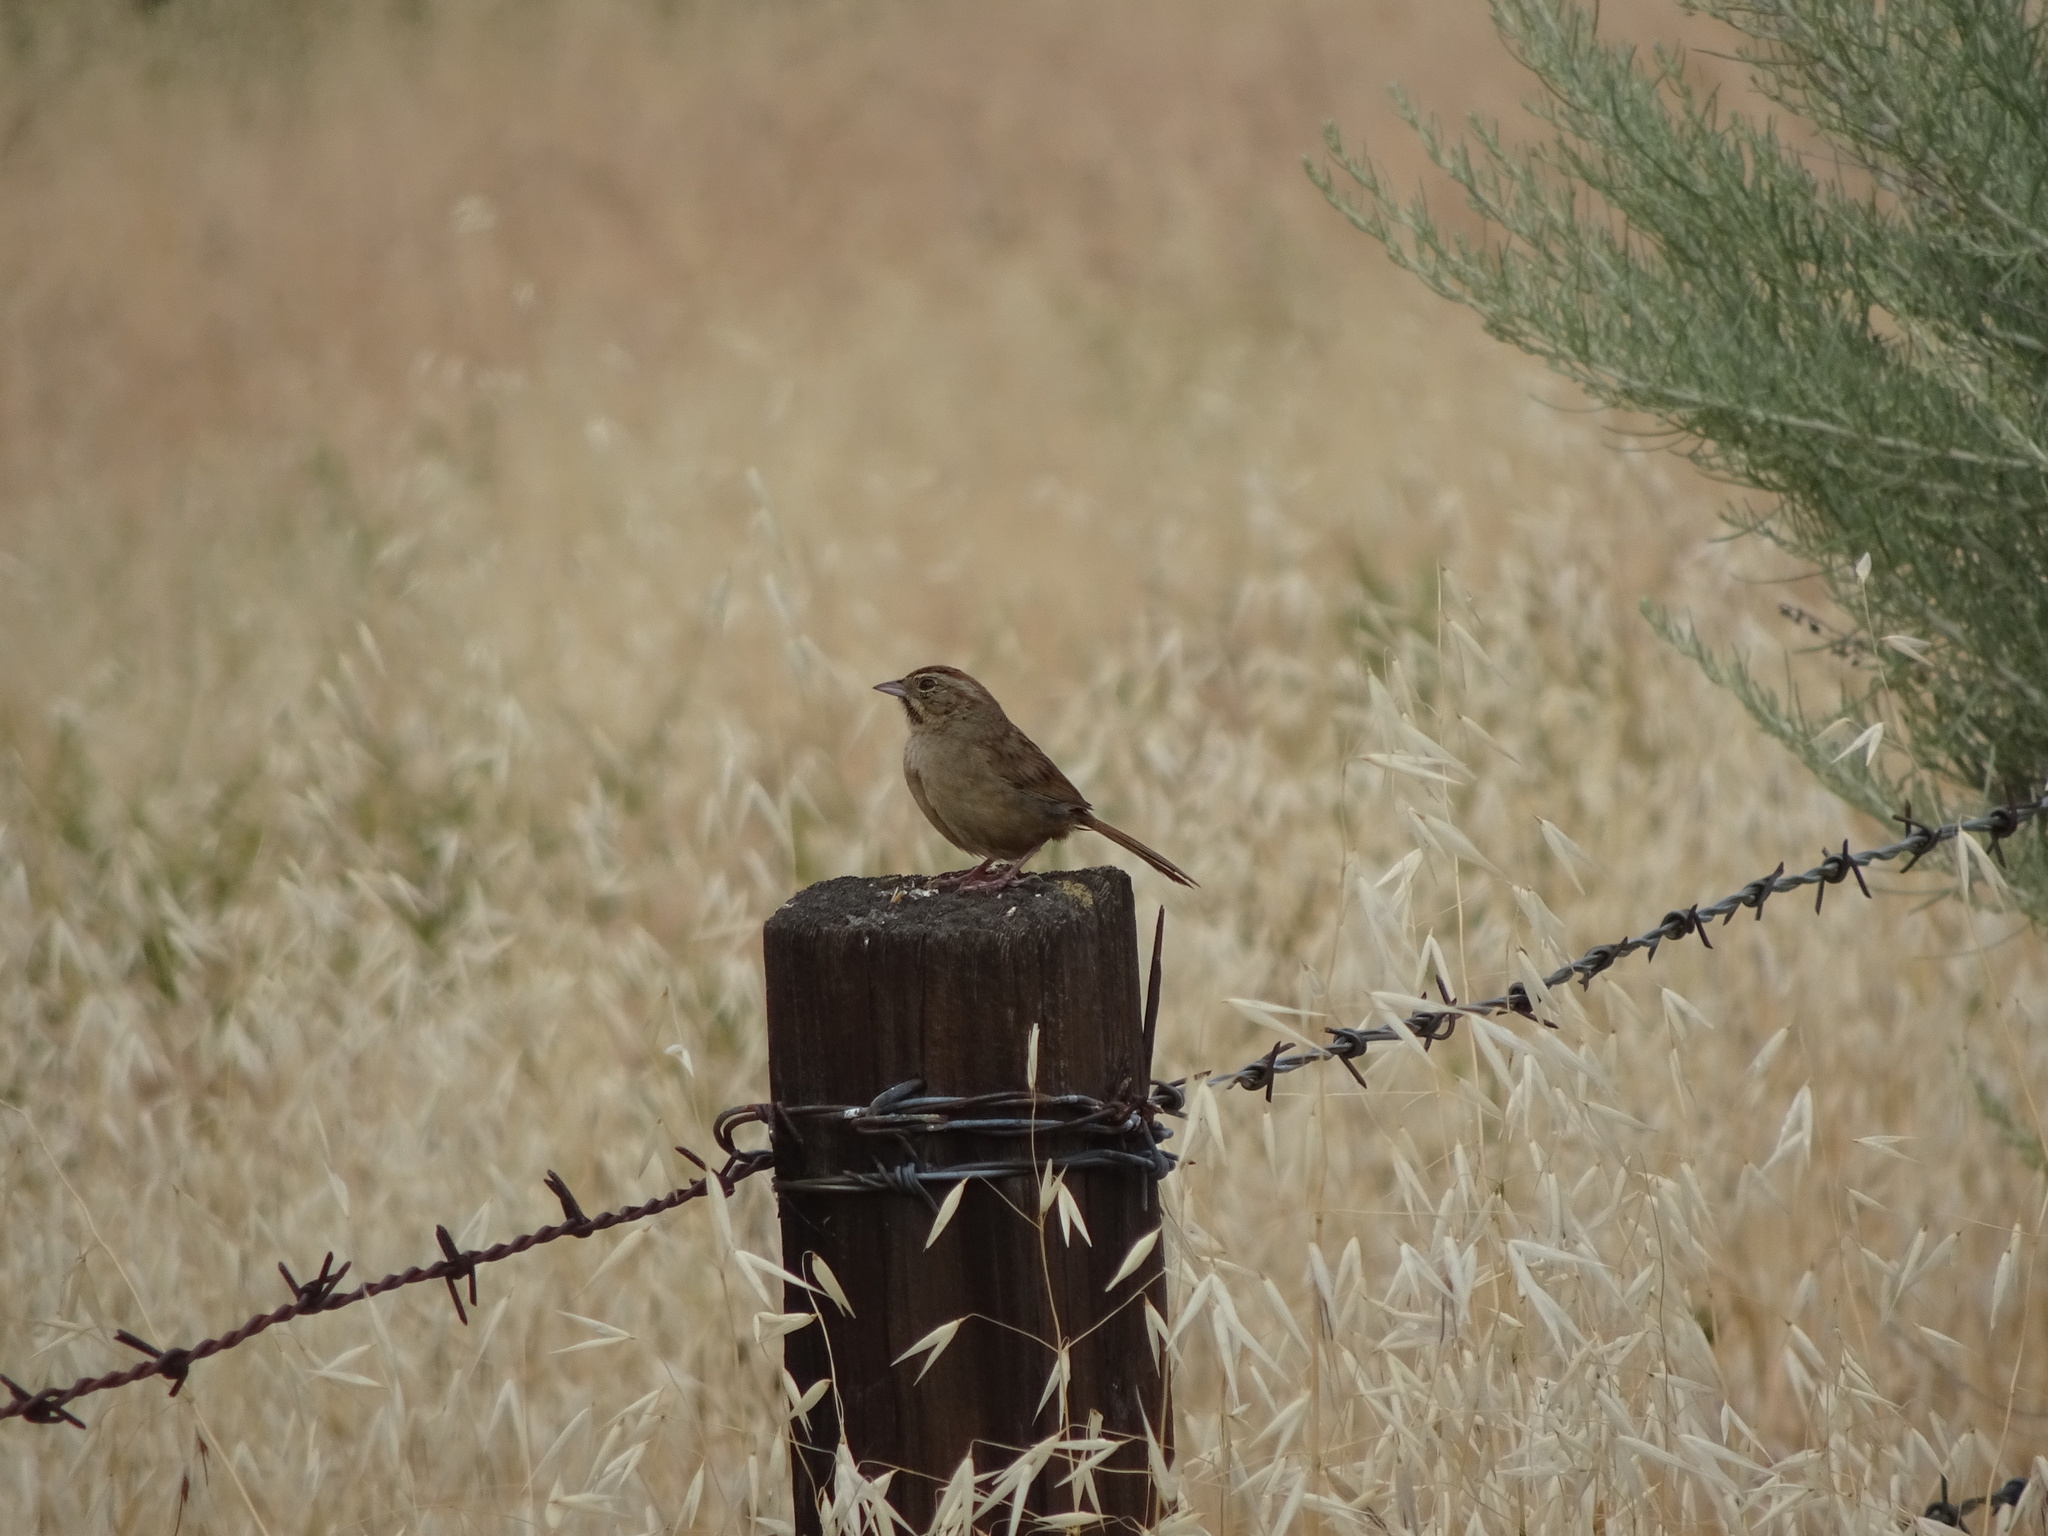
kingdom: Animalia
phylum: Chordata
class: Aves
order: Passeriformes
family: Passerellidae
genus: Aimophila
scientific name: Aimophila ruficeps
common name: Rufous-crowned sparrow
